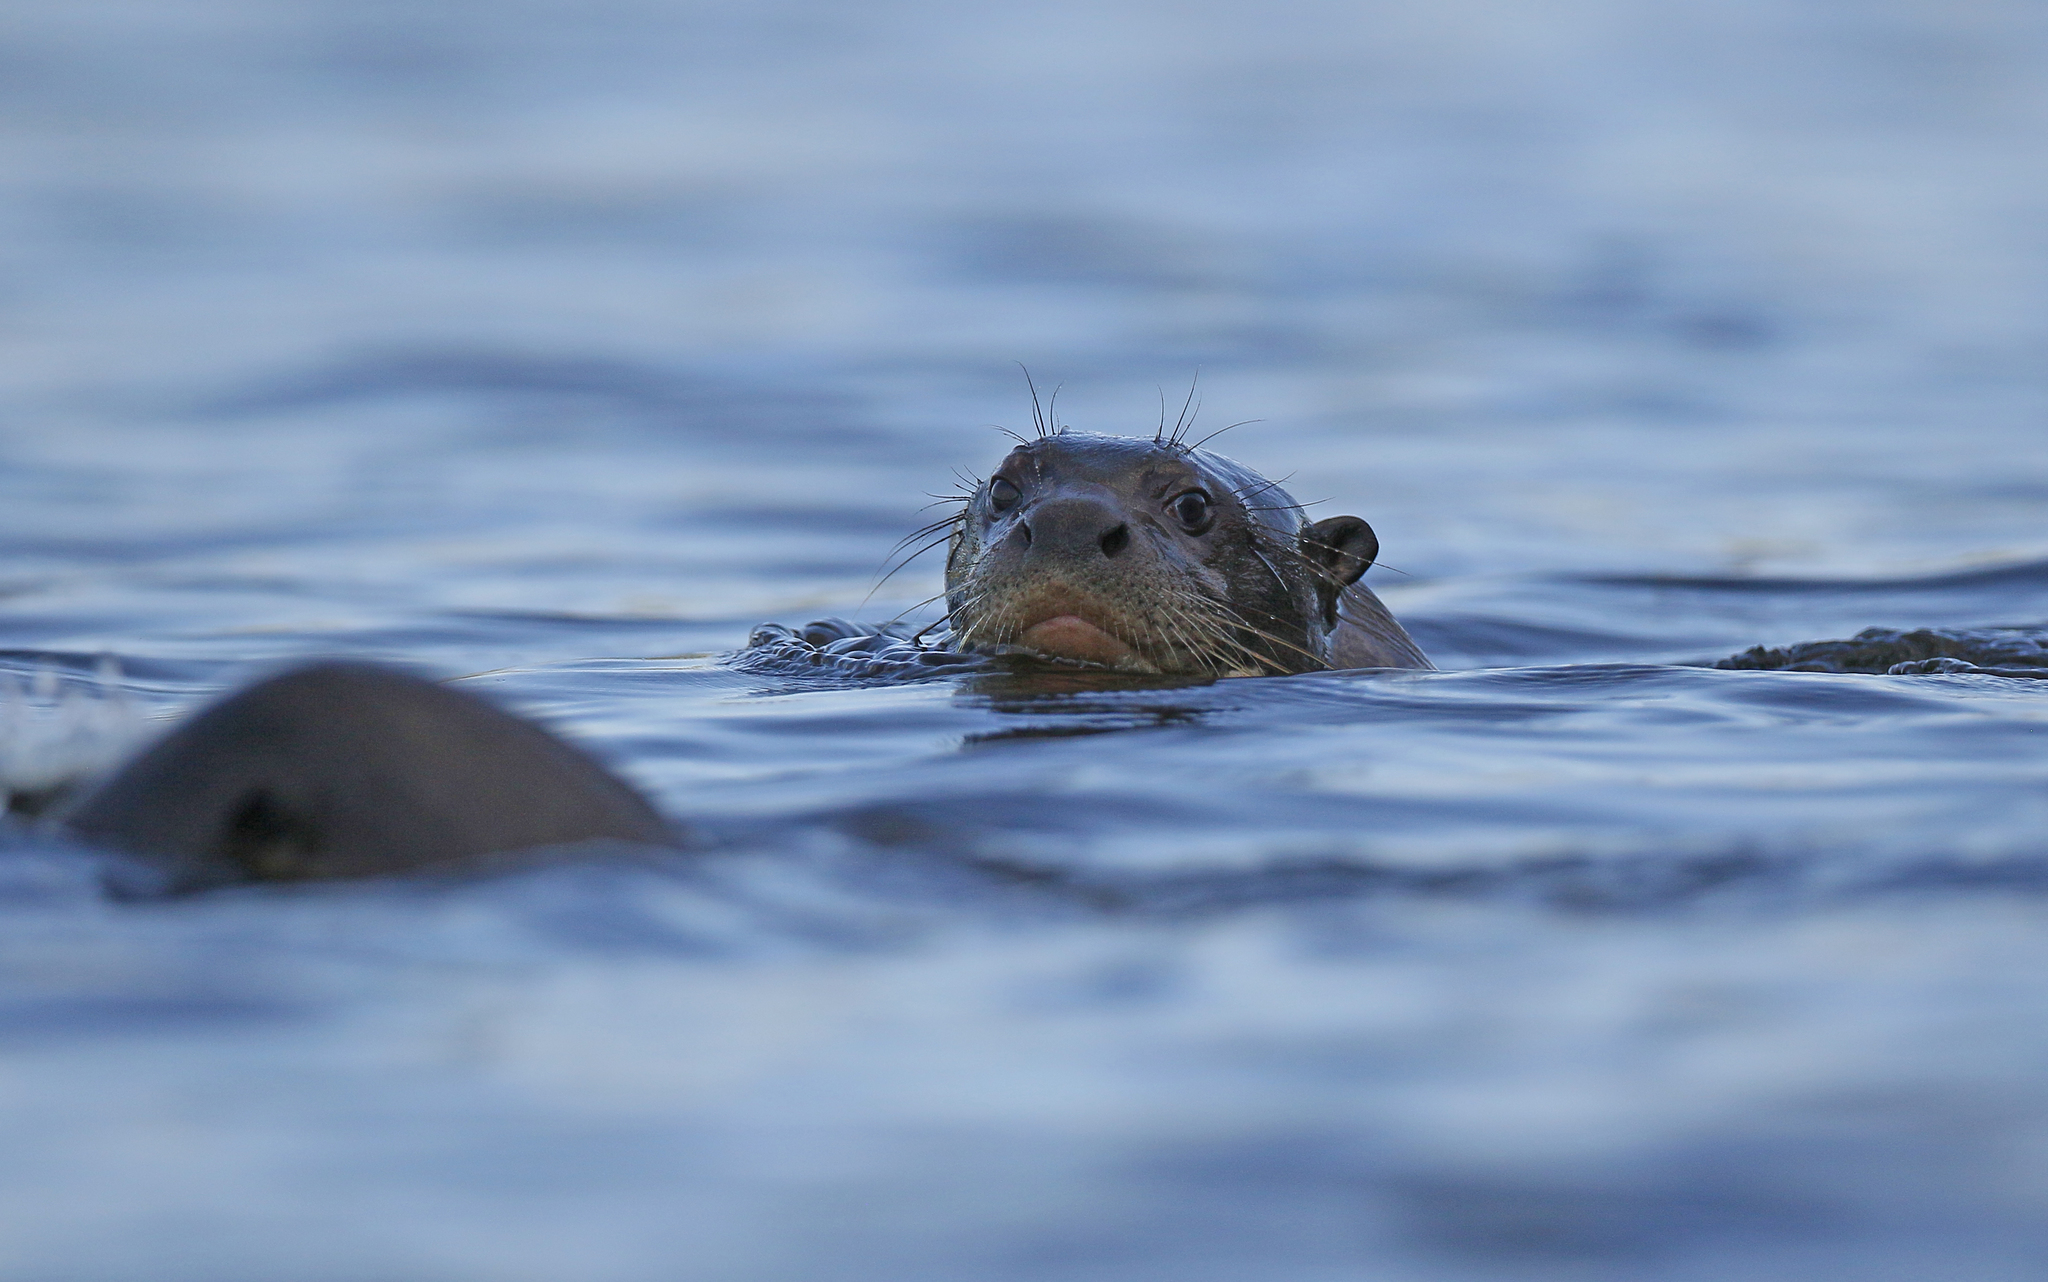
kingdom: Animalia
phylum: Chordata
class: Mammalia
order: Carnivora
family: Mustelidae
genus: Pteronura
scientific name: Pteronura brasiliensis
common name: Giant otter
